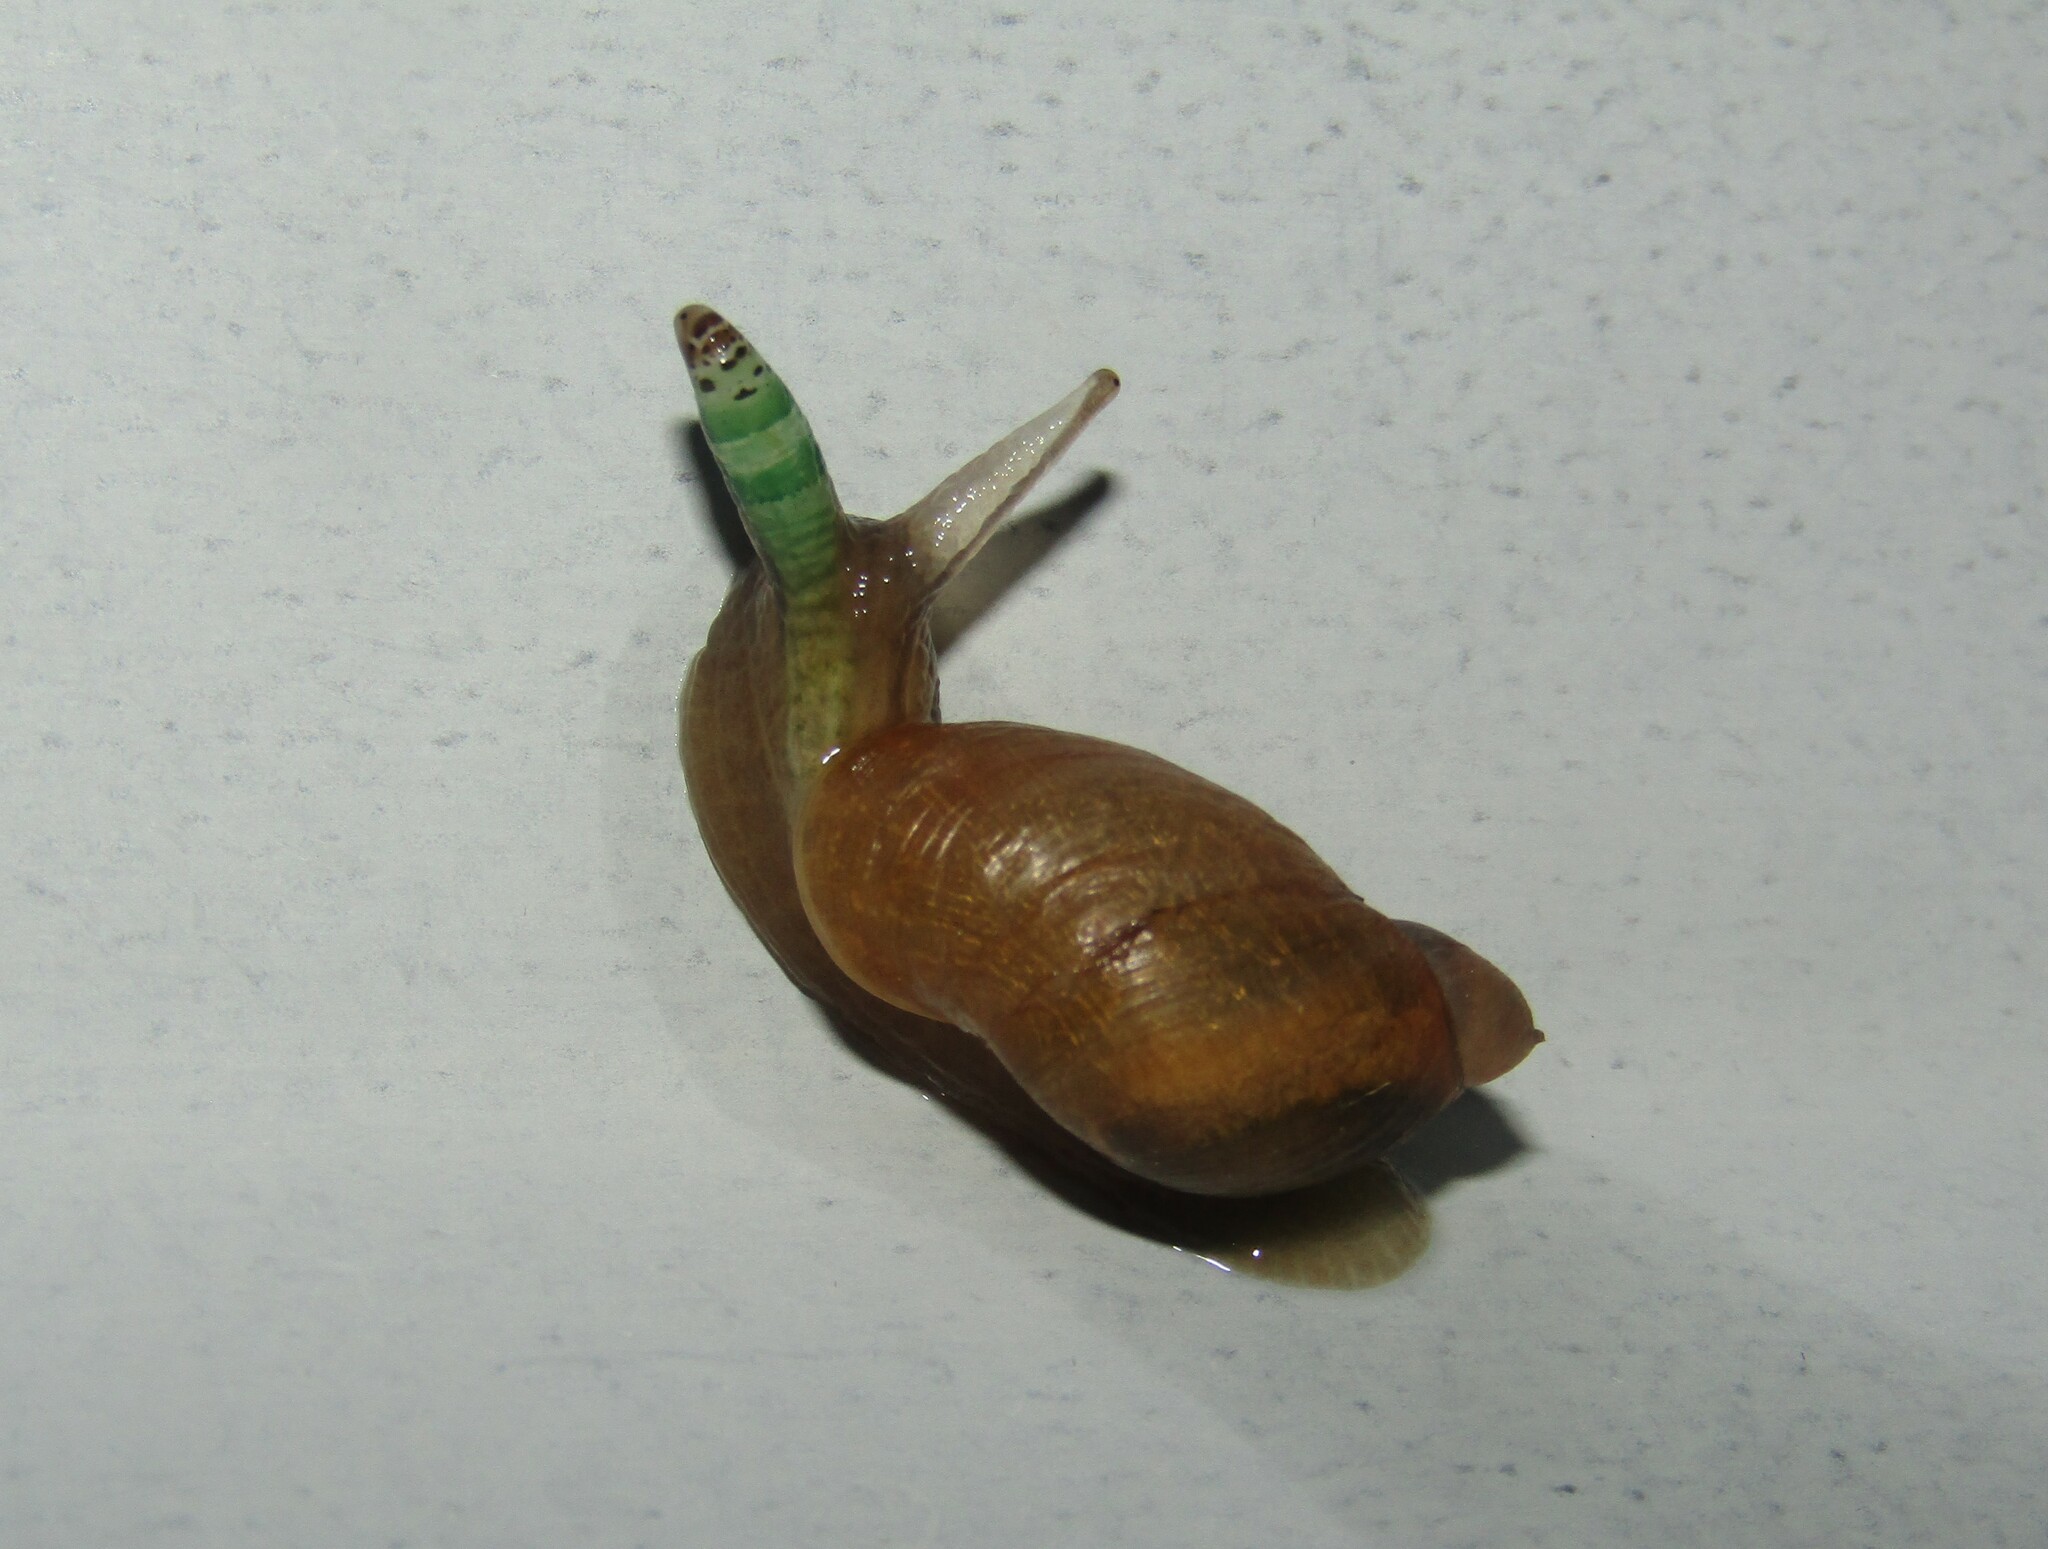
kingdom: Animalia
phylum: Platyhelminthes
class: Trematoda
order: Diplostomida
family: Leucochloridiidae
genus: Leucochloridium
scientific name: Leucochloridium paradoxum
